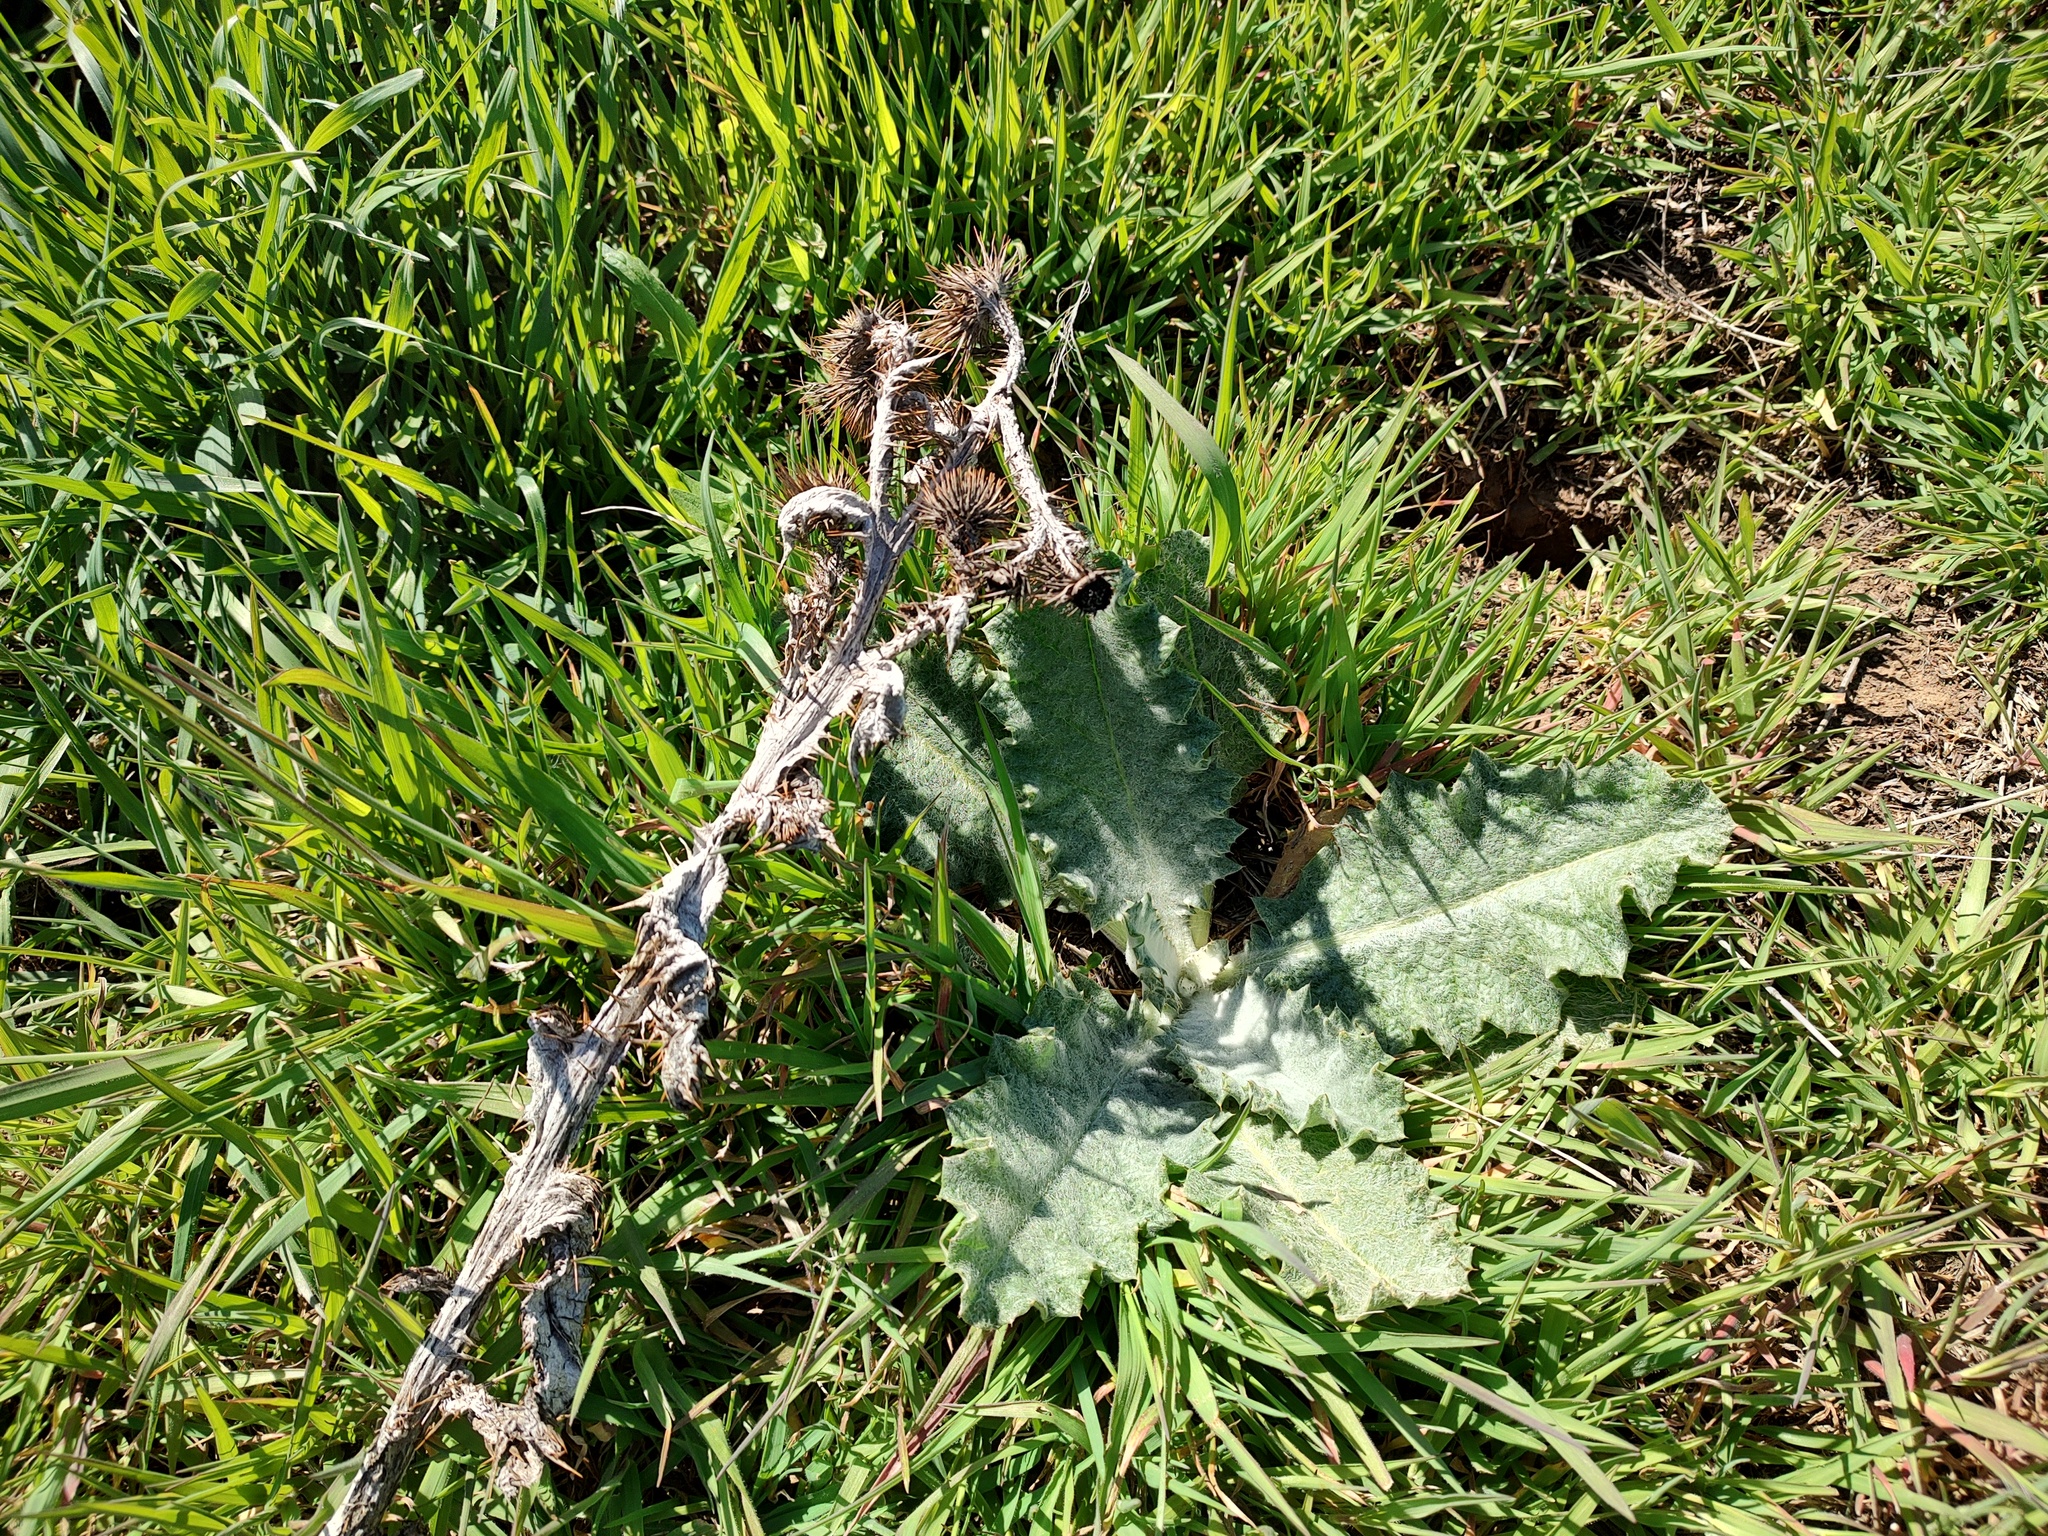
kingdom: Plantae
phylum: Tracheophyta
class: Magnoliopsida
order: Asterales
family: Asteraceae
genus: Onopordum
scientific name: Onopordum acanthium
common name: Scotch thistle
